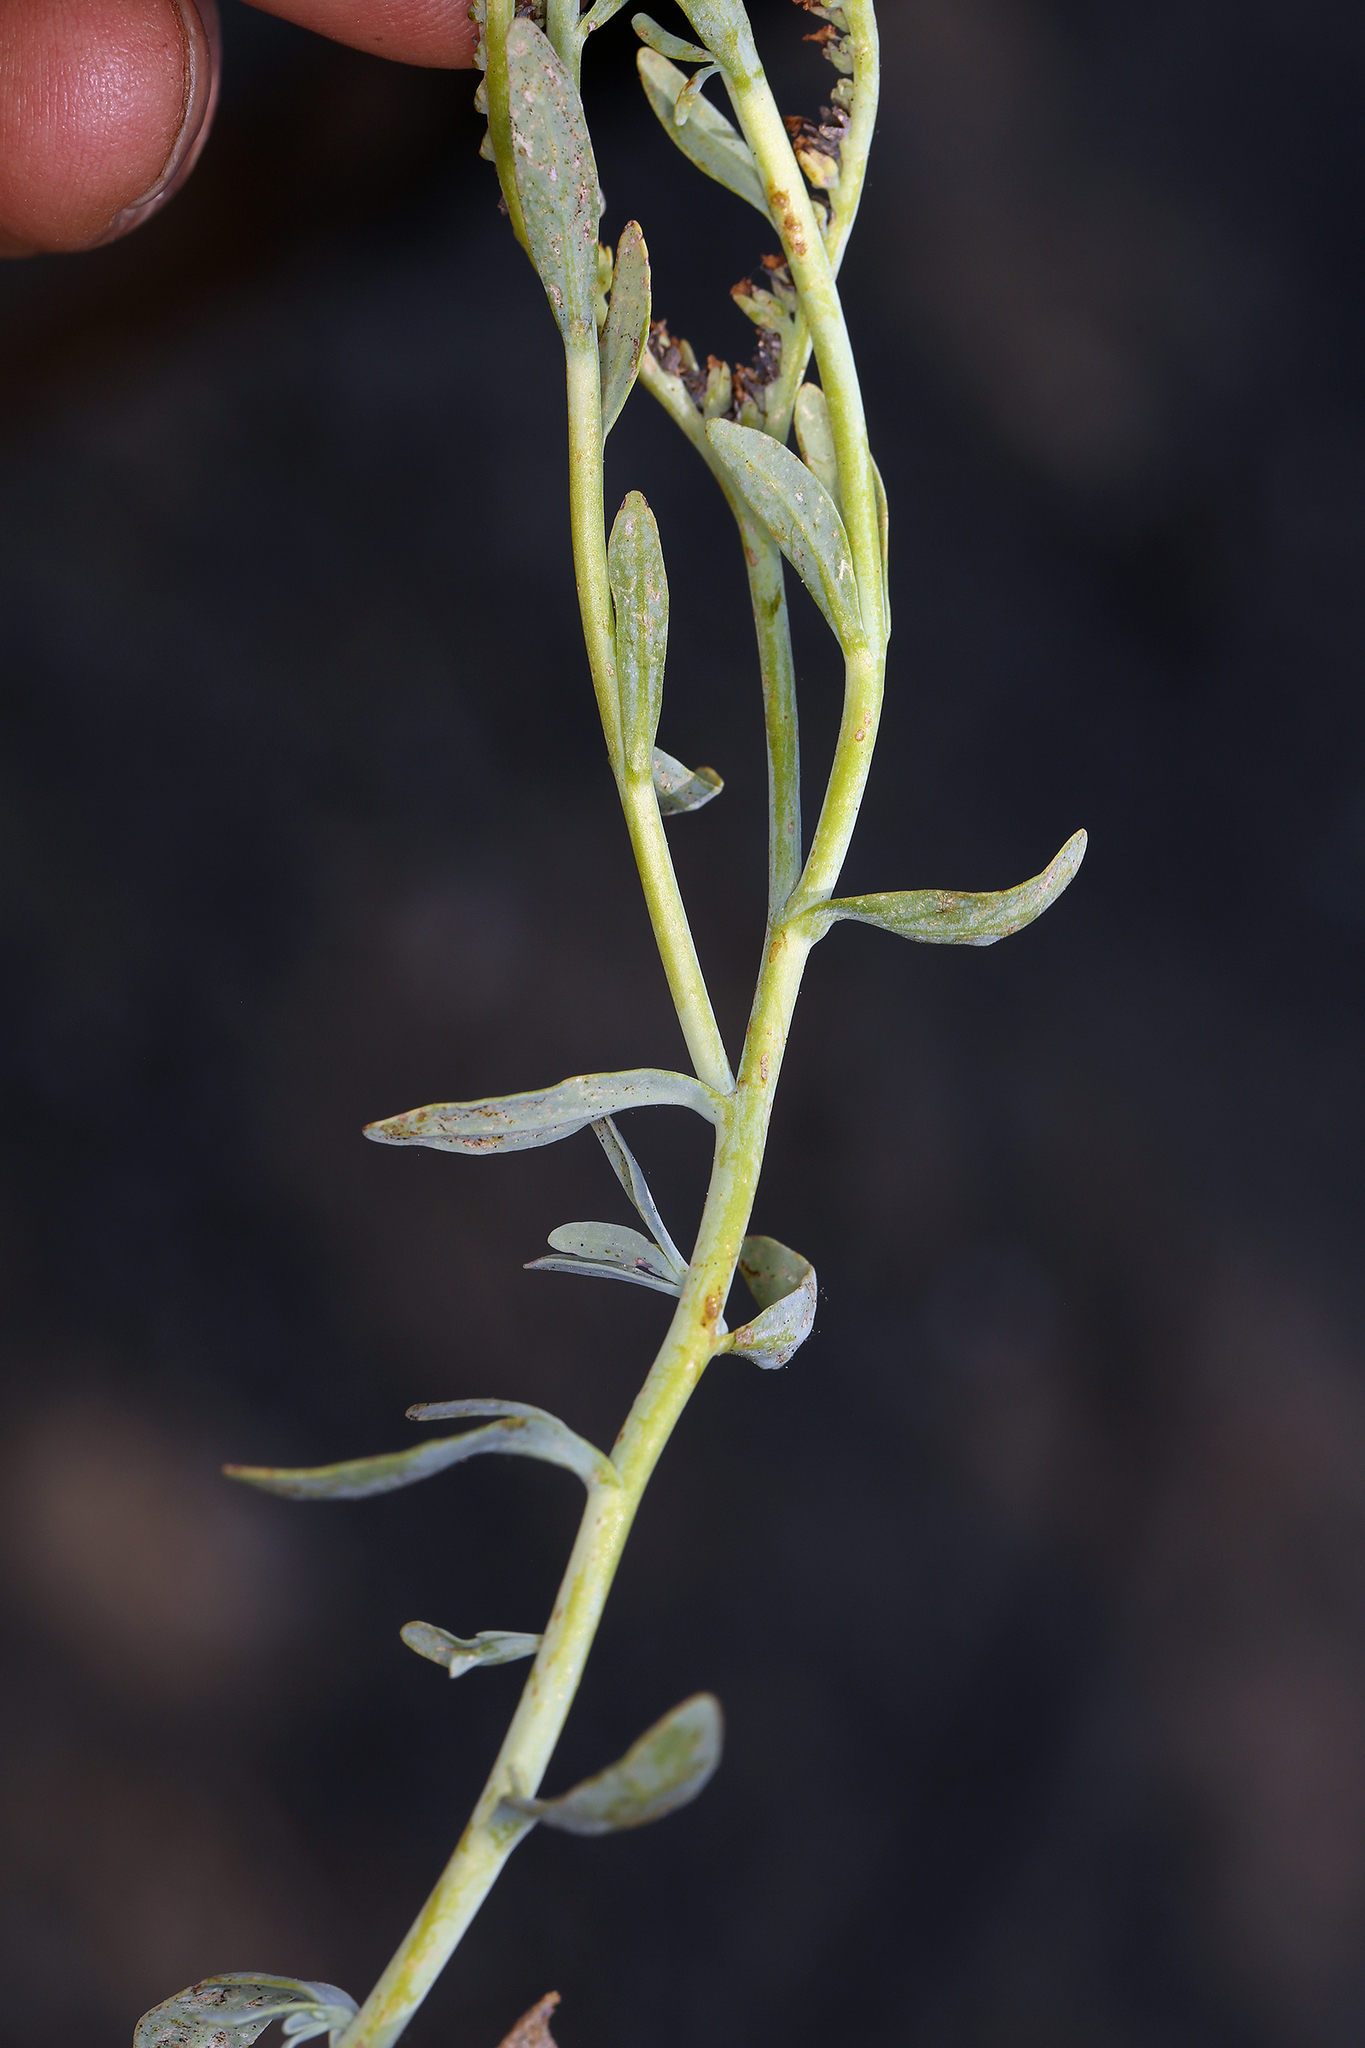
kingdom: Plantae
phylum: Tracheophyta
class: Magnoliopsida
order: Boraginales
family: Heliotropiaceae
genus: Heliotropium
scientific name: Heliotropium curassavicum
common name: Seaside heliotrope
